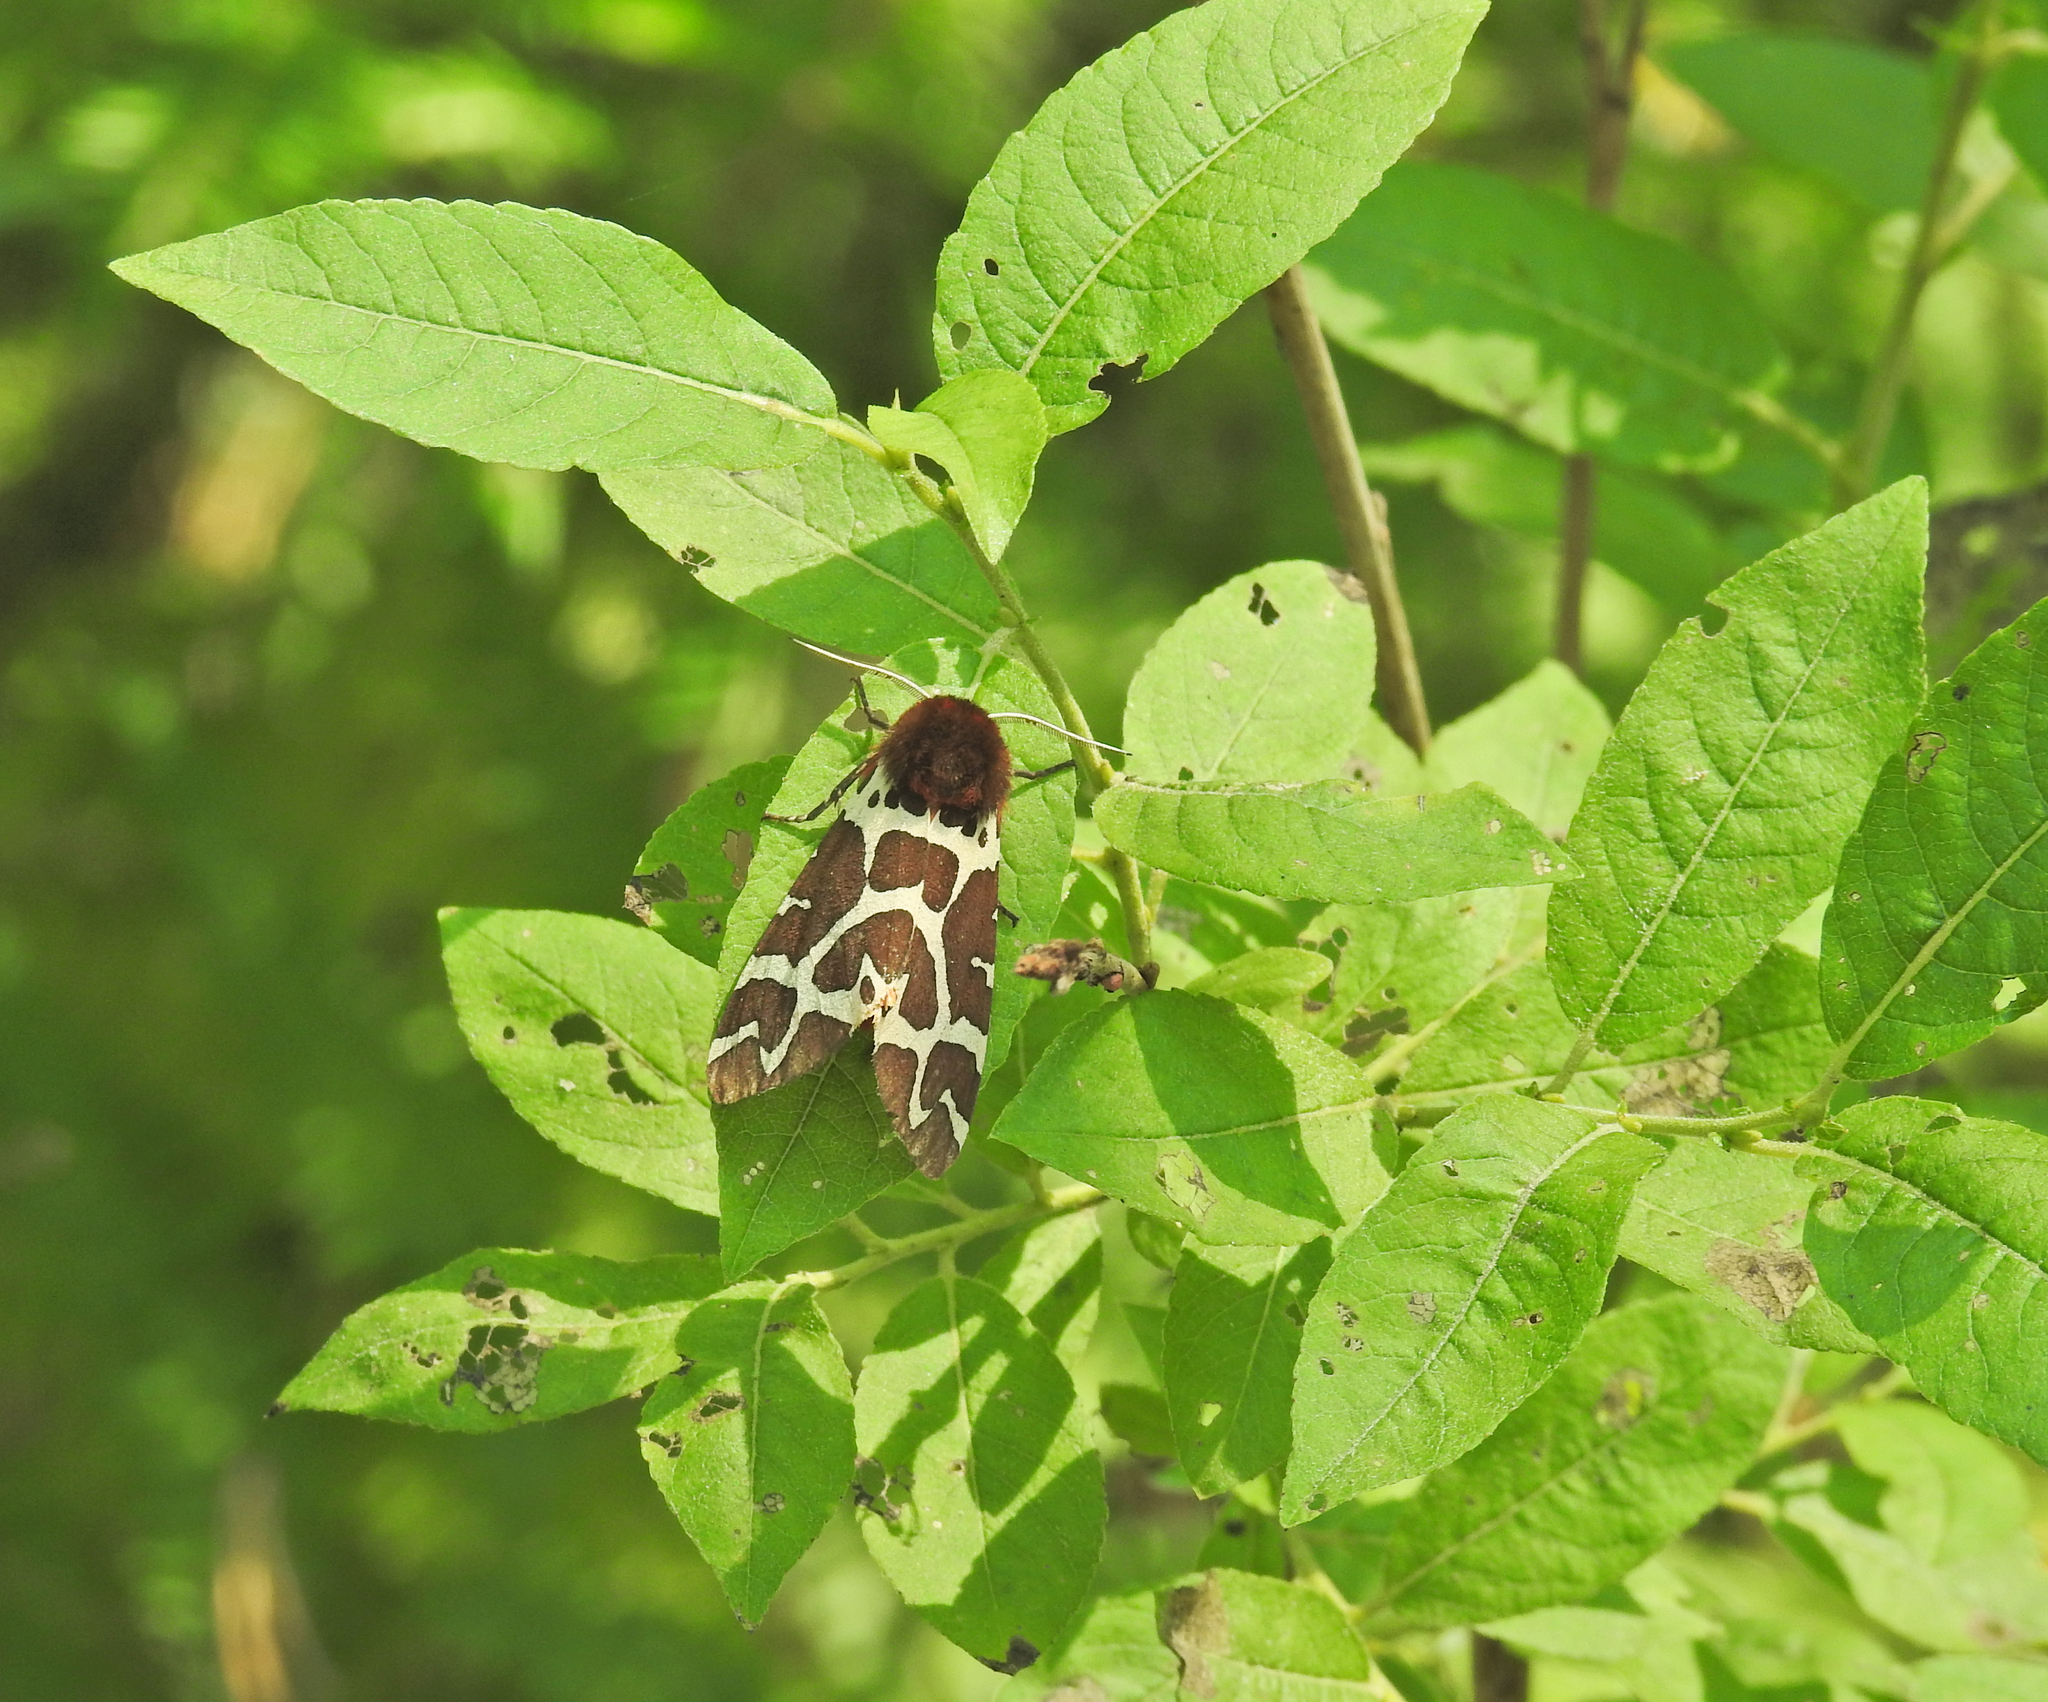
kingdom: Animalia
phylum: Arthropoda
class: Insecta
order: Lepidoptera
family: Erebidae
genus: Arctia
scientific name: Arctia caja
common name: Garden tiger
